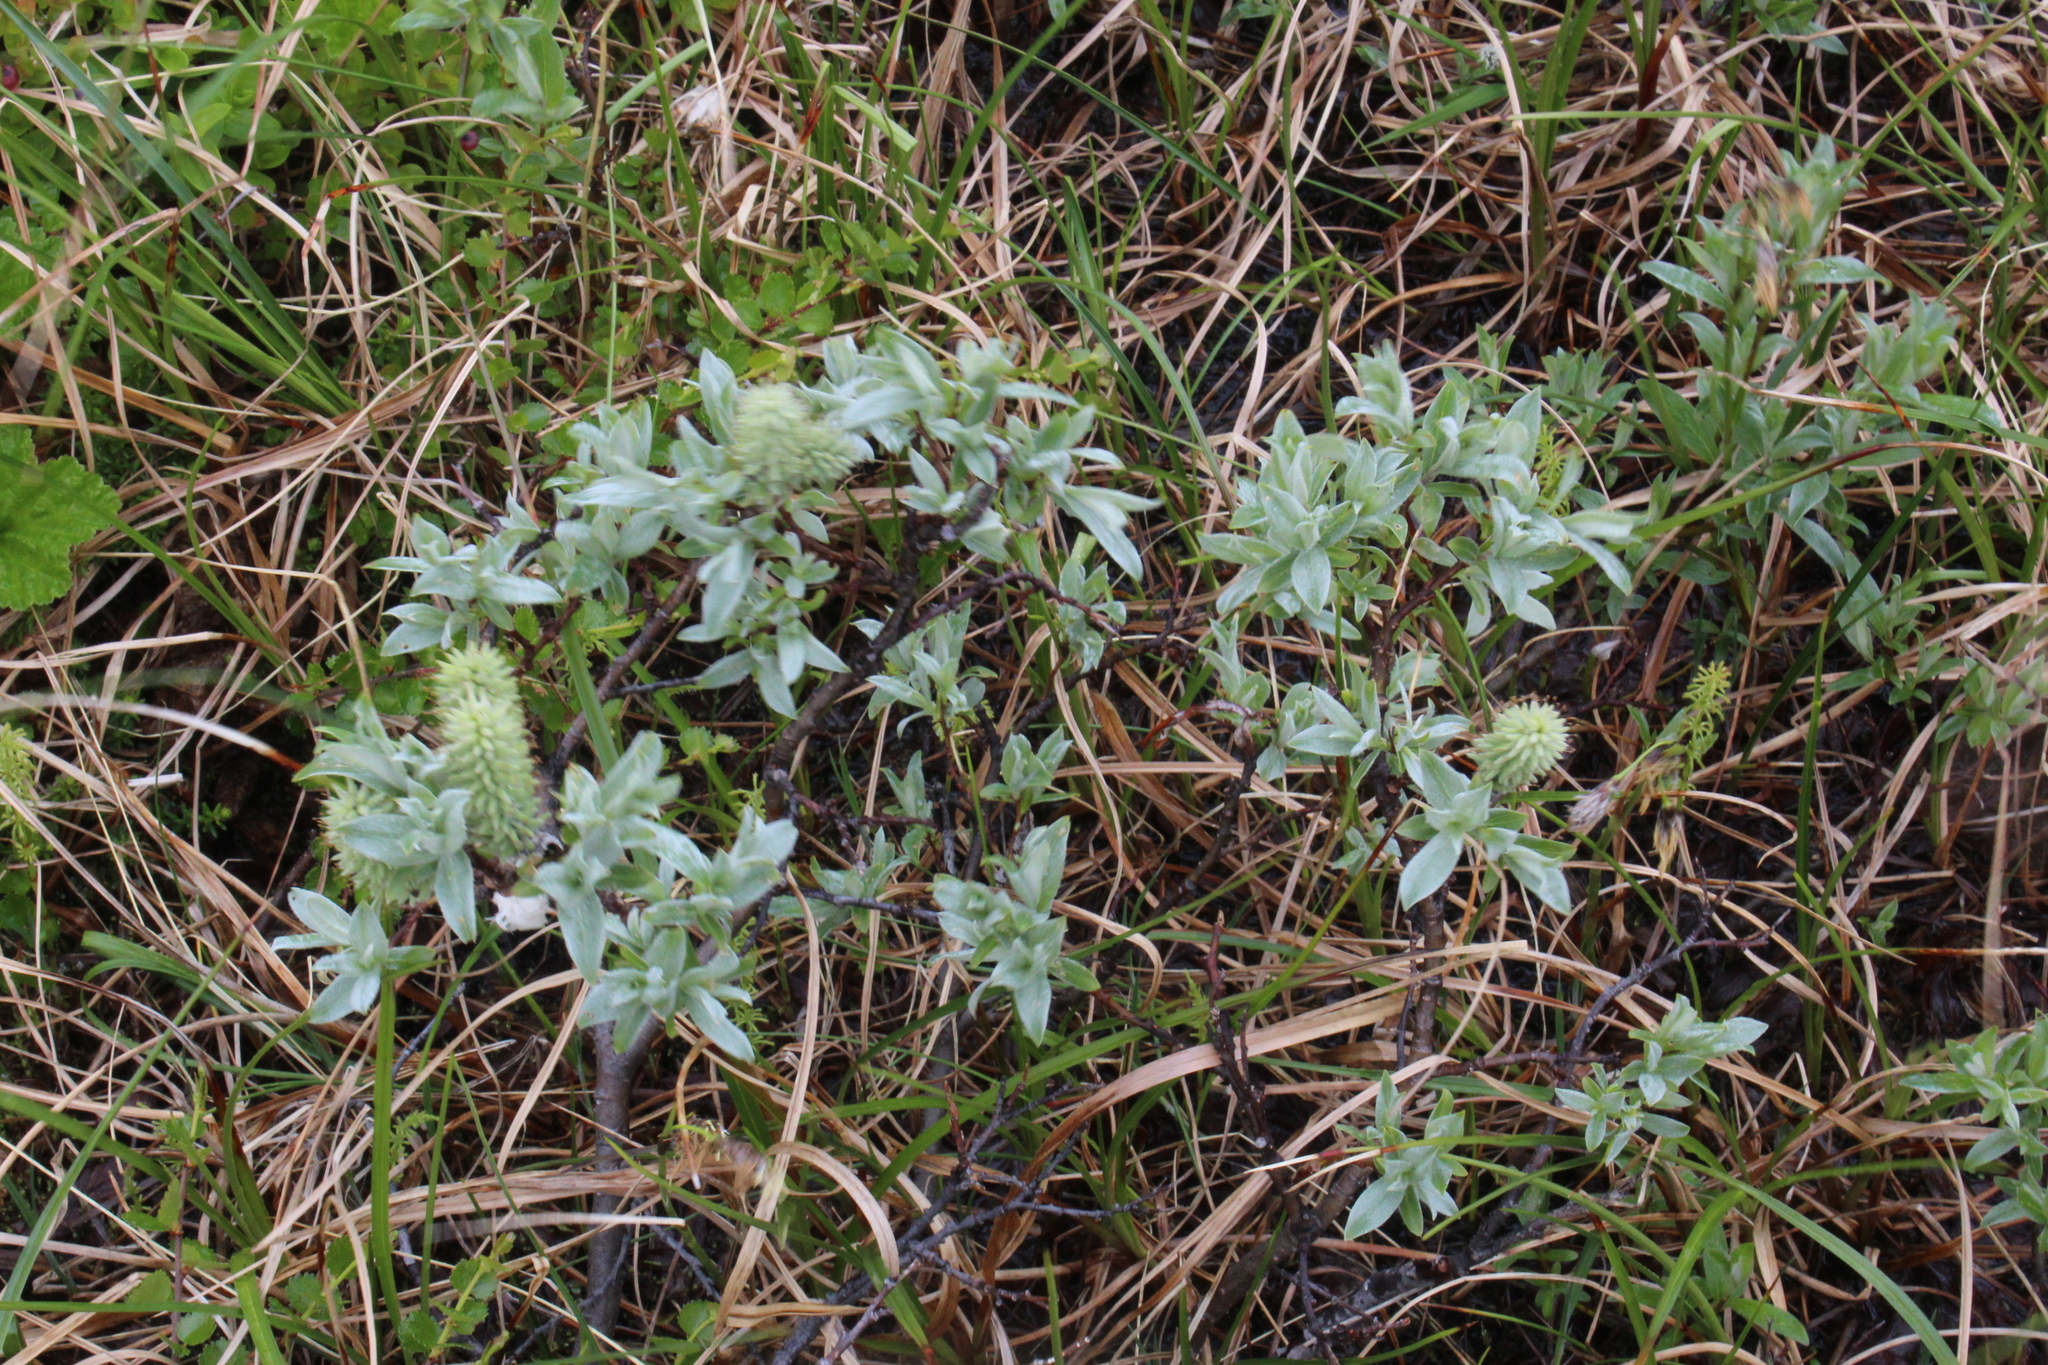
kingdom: Plantae
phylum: Tracheophyta
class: Magnoliopsida
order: Malpighiales
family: Salicaceae
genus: Salix
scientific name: Salix lapponum
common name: Downy willow
